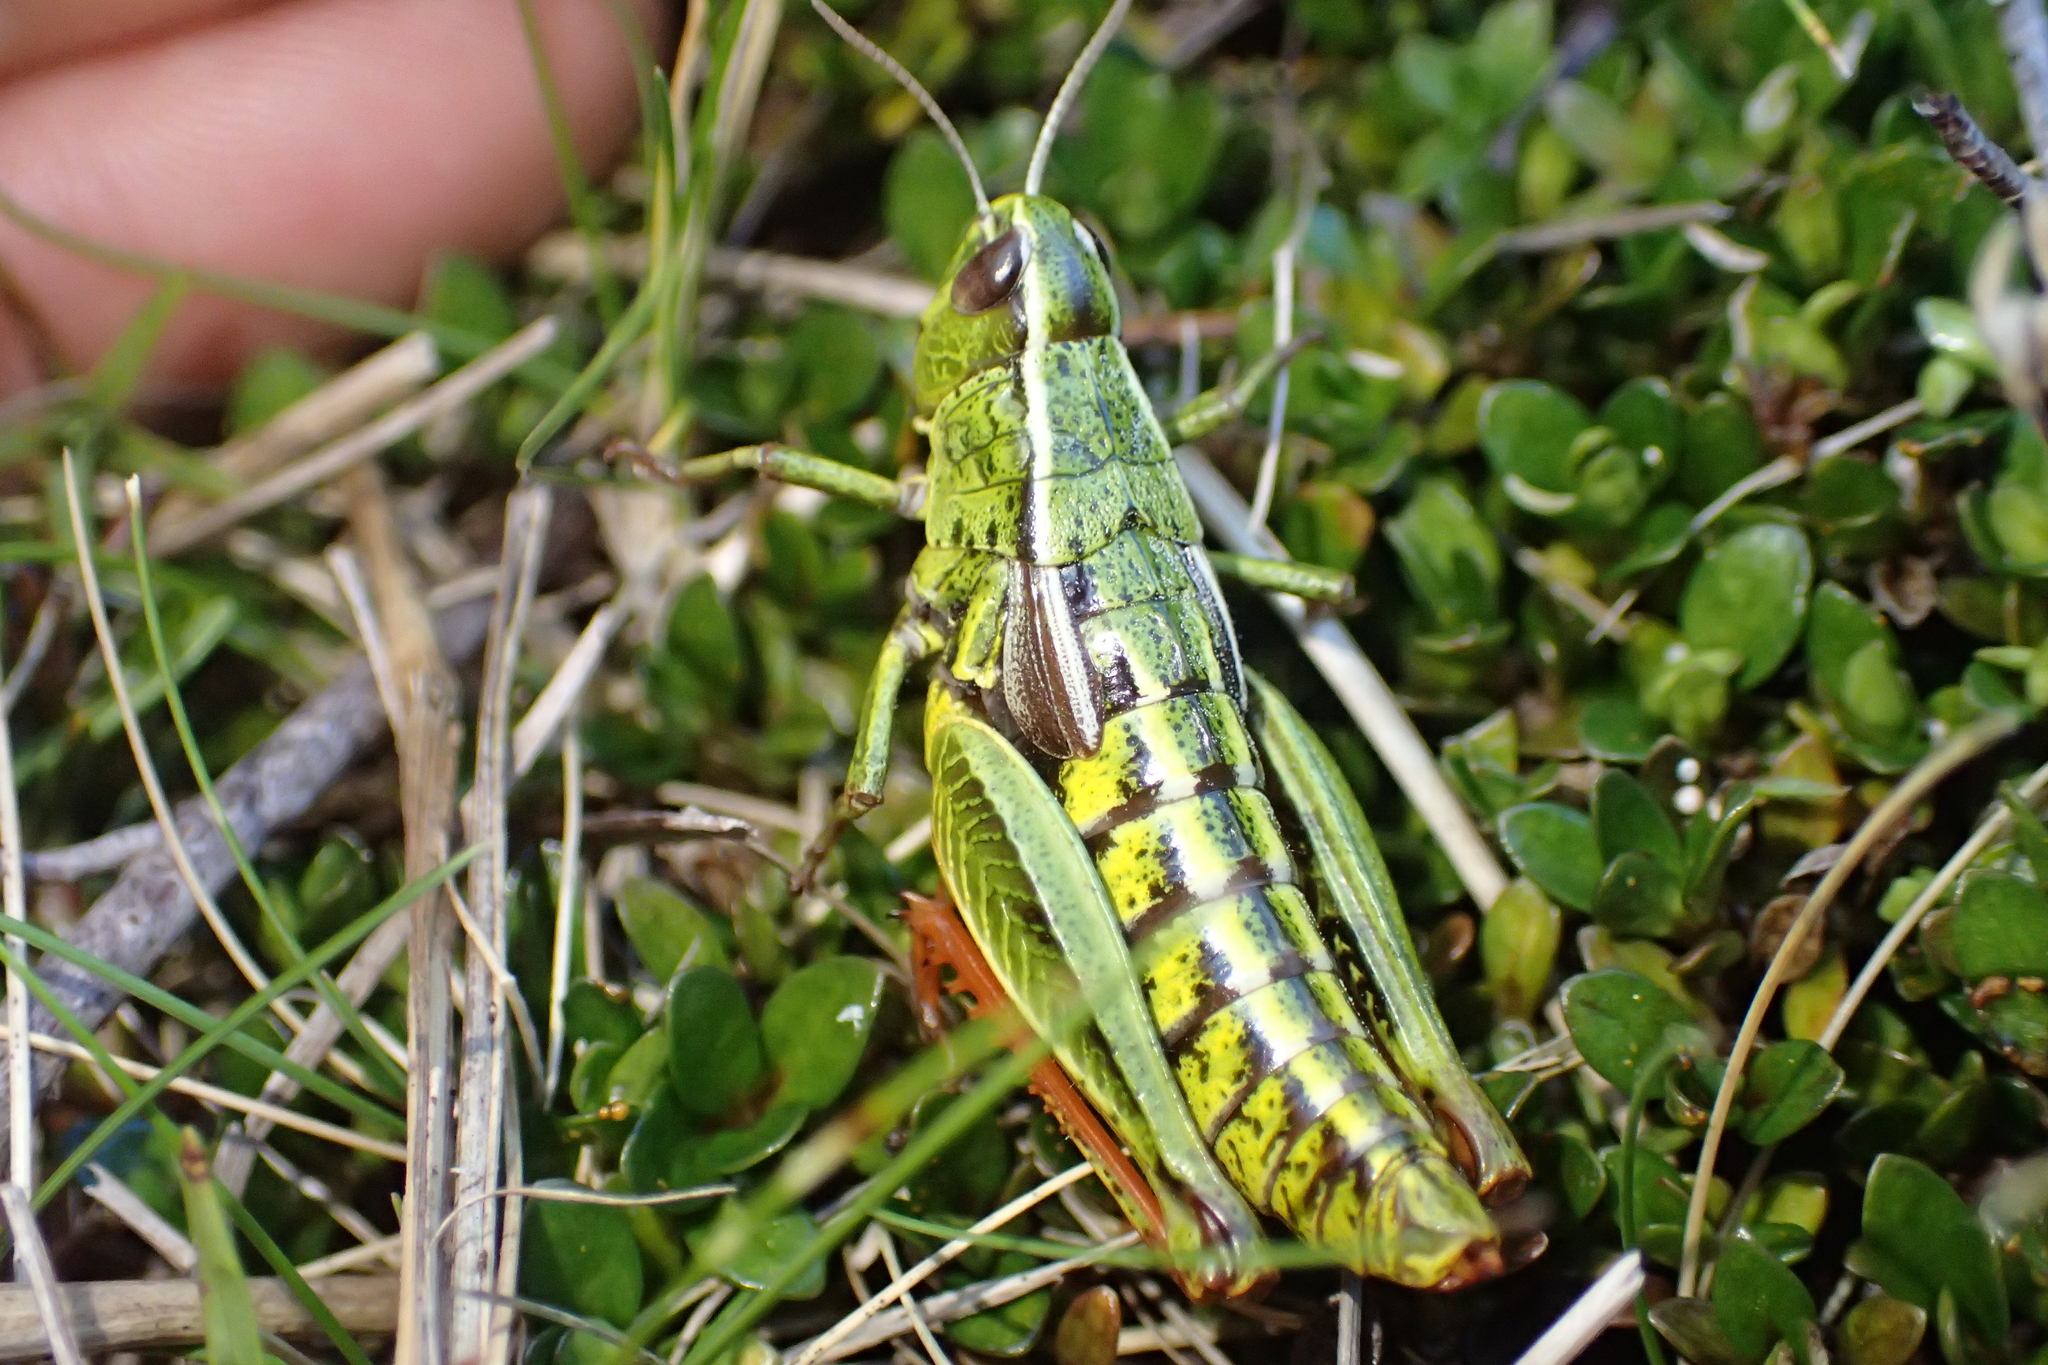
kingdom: Animalia
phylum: Arthropoda
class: Insecta
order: Orthoptera
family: Acrididae
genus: Sigaus
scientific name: Sigaus
